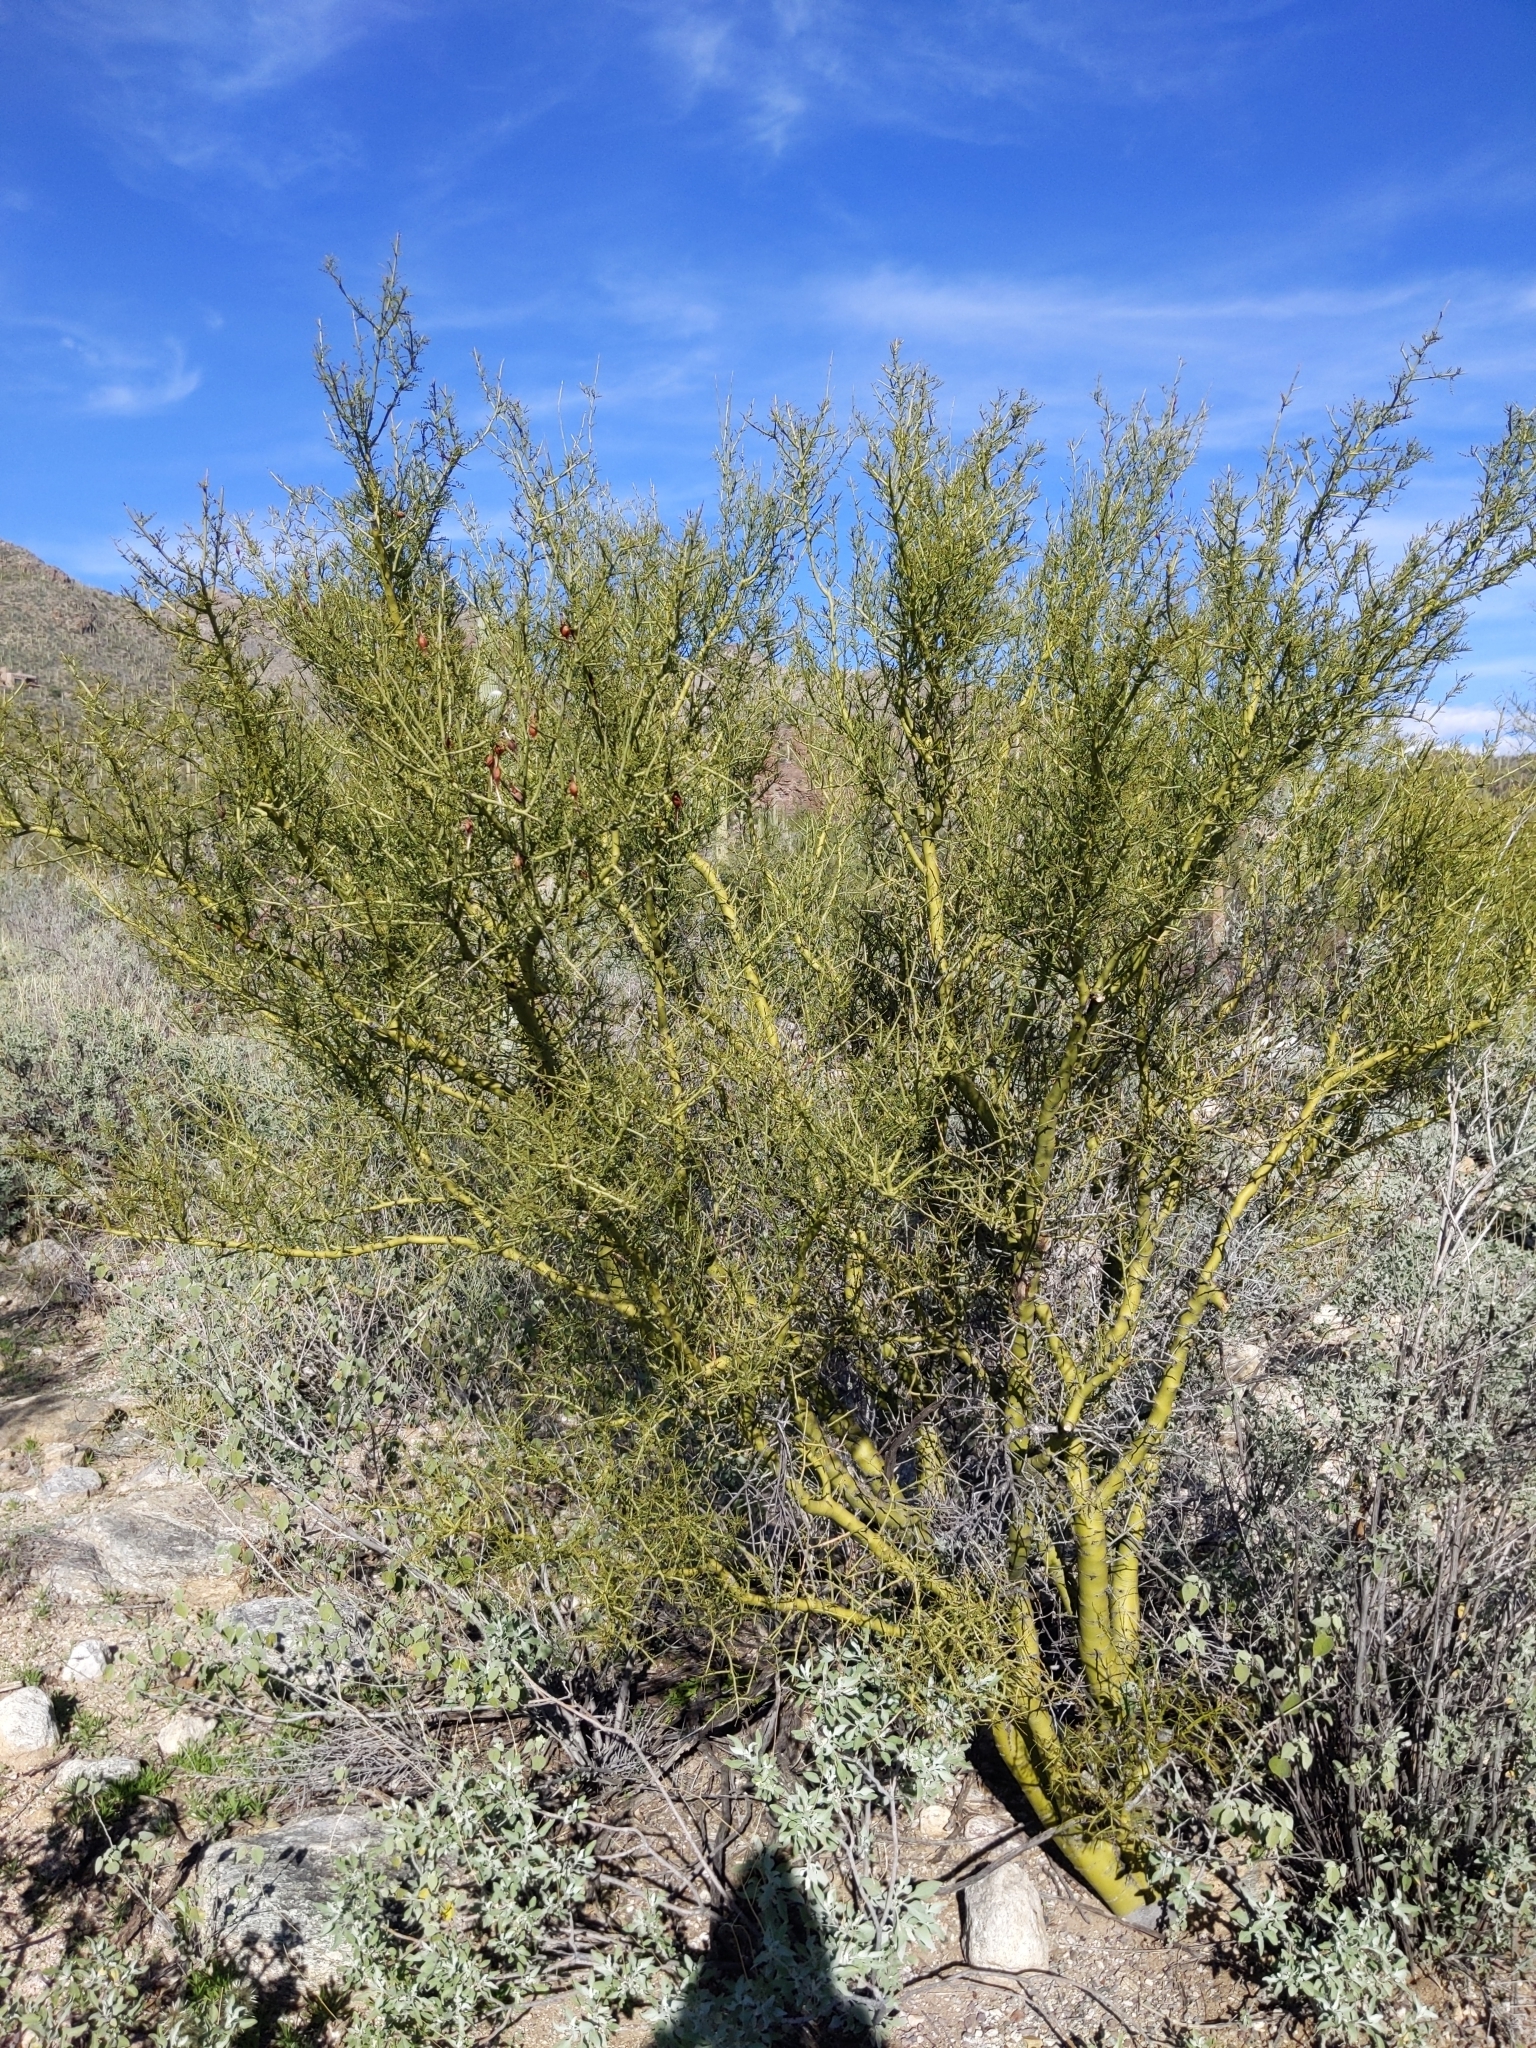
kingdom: Plantae
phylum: Tracheophyta
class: Magnoliopsida
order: Fabales
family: Fabaceae
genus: Parkinsonia
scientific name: Parkinsonia microphylla
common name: Yellow paloverde
